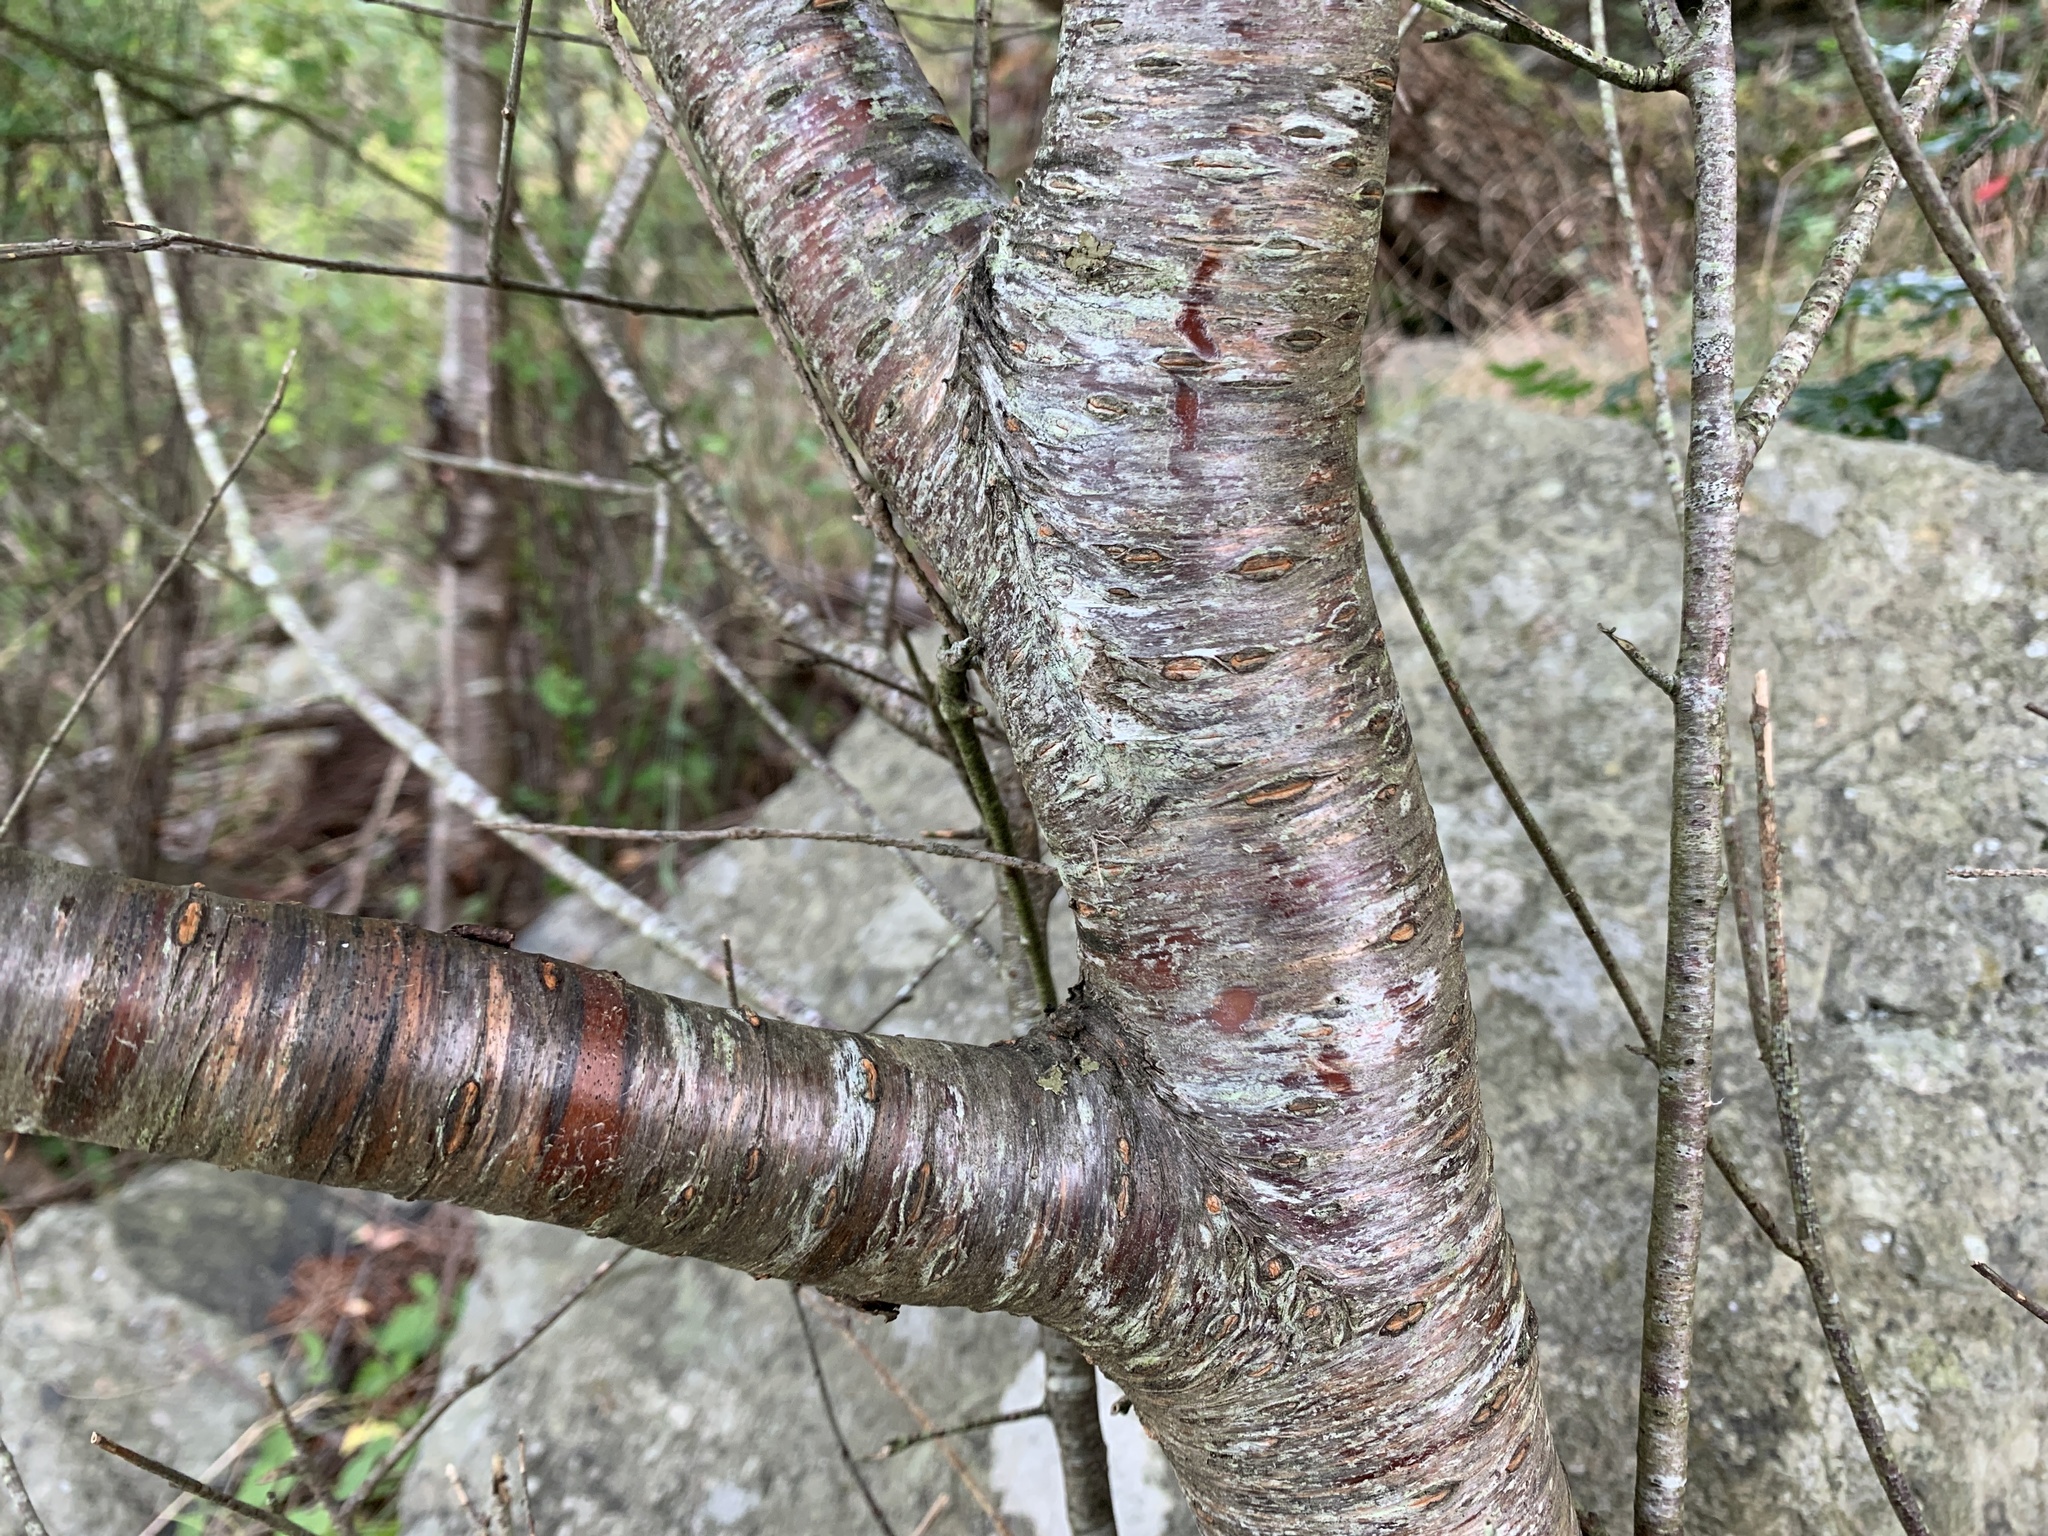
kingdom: Plantae
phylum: Tracheophyta
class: Magnoliopsida
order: Rosales
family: Rosaceae
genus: Prunus
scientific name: Prunus emarginata
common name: Bitter cherry
